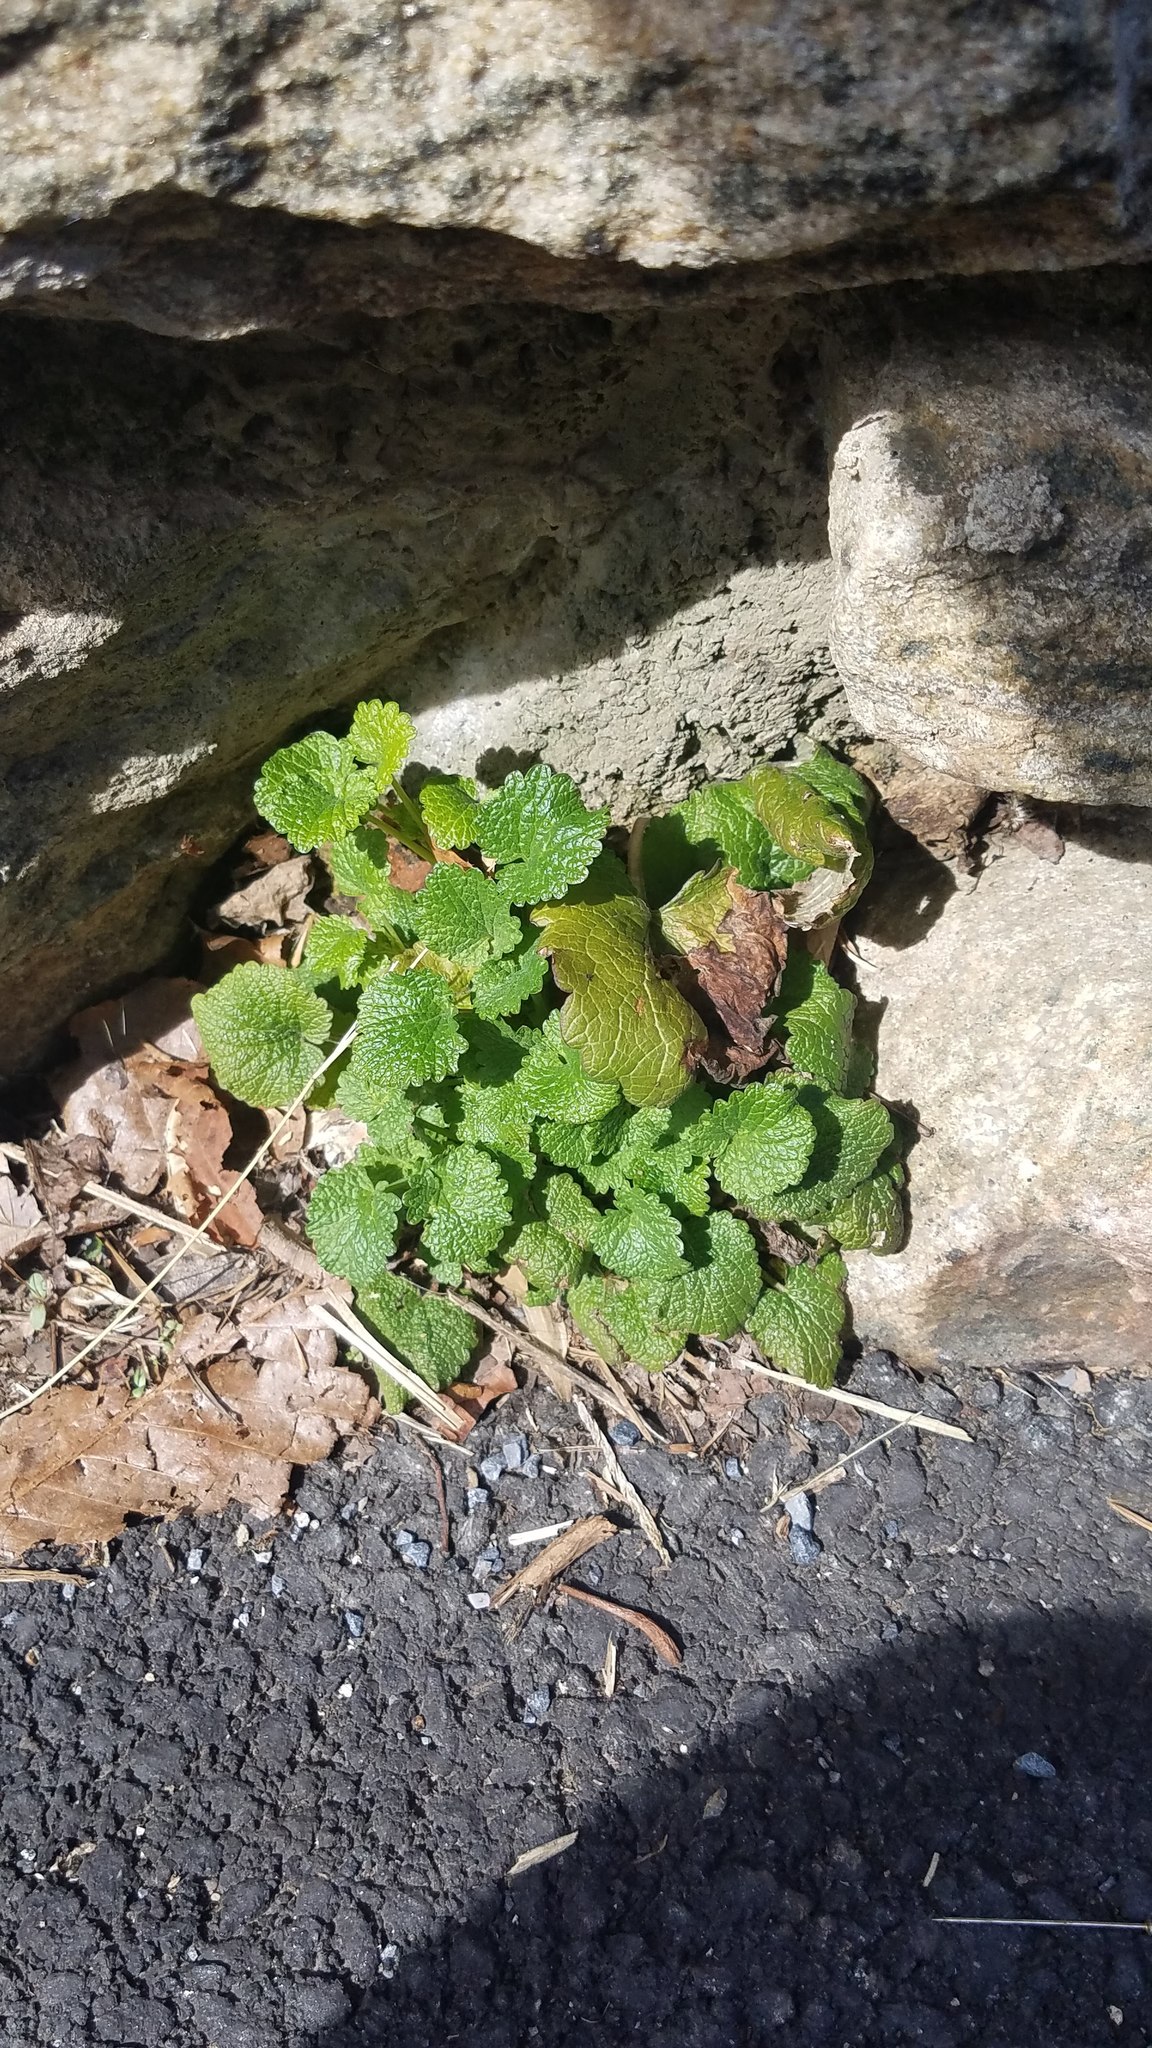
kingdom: Plantae
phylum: Tracheophyta
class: Magnoliopsida
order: Lamiales
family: Lamiaceae
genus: Lamium
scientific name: Lamium purpureum
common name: Red dead-nettle
